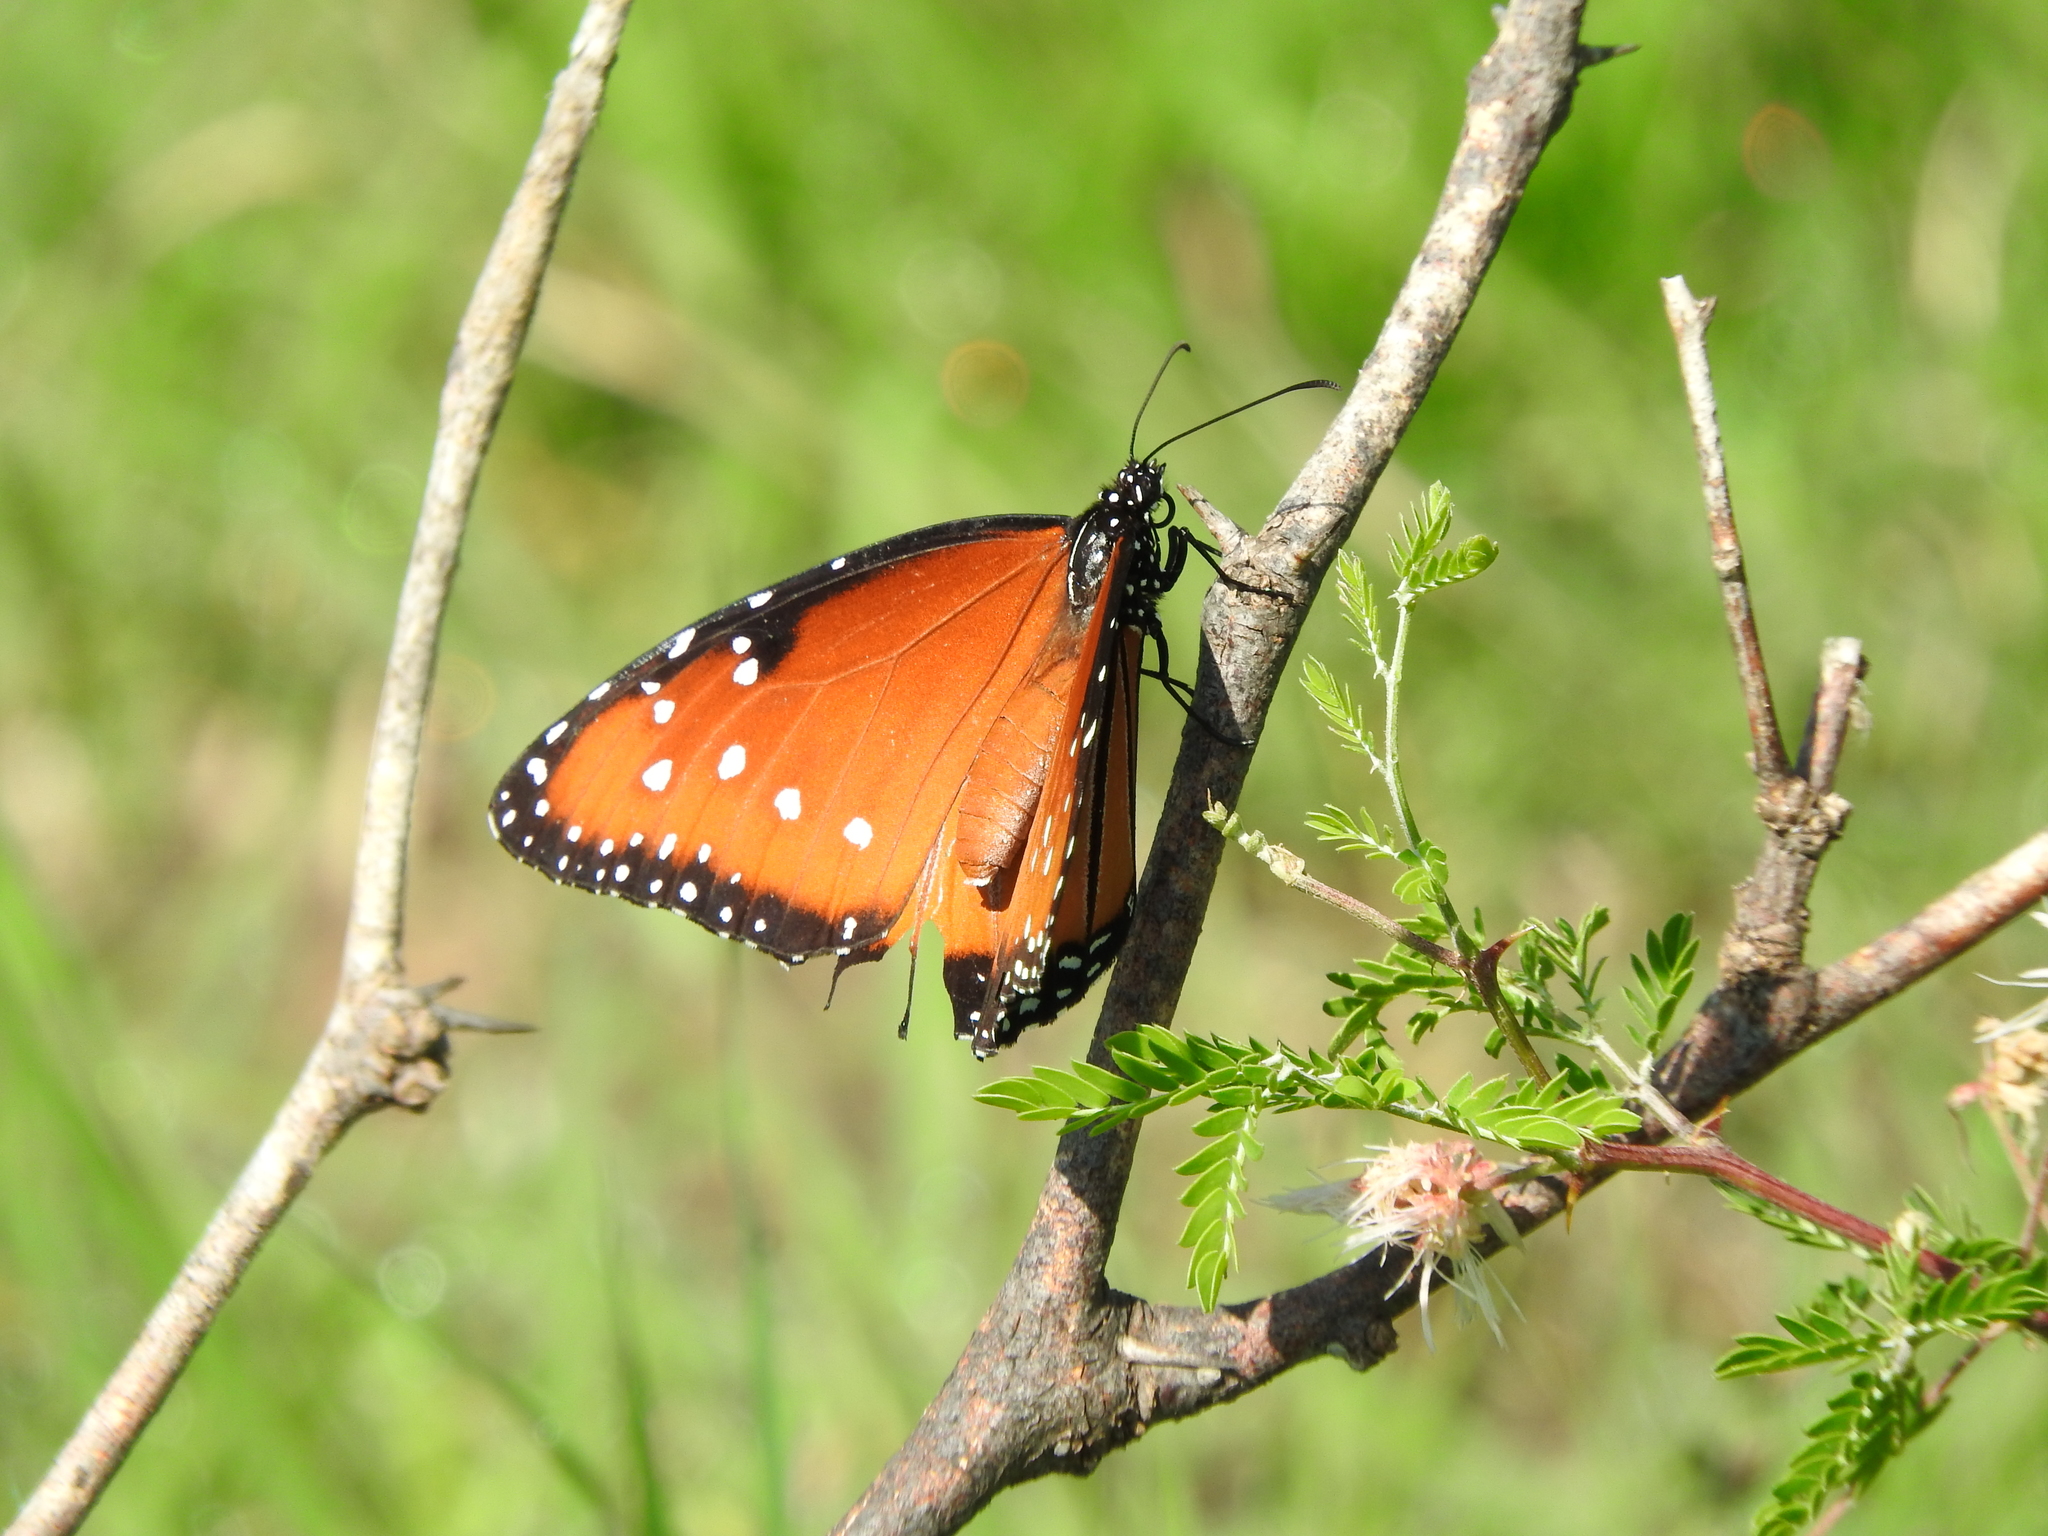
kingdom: Animalia
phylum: Arthropoda
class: Insecta
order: Lepidoptera
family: Nymphalidae
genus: Danaus
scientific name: Danaus gilippus
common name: Queen
